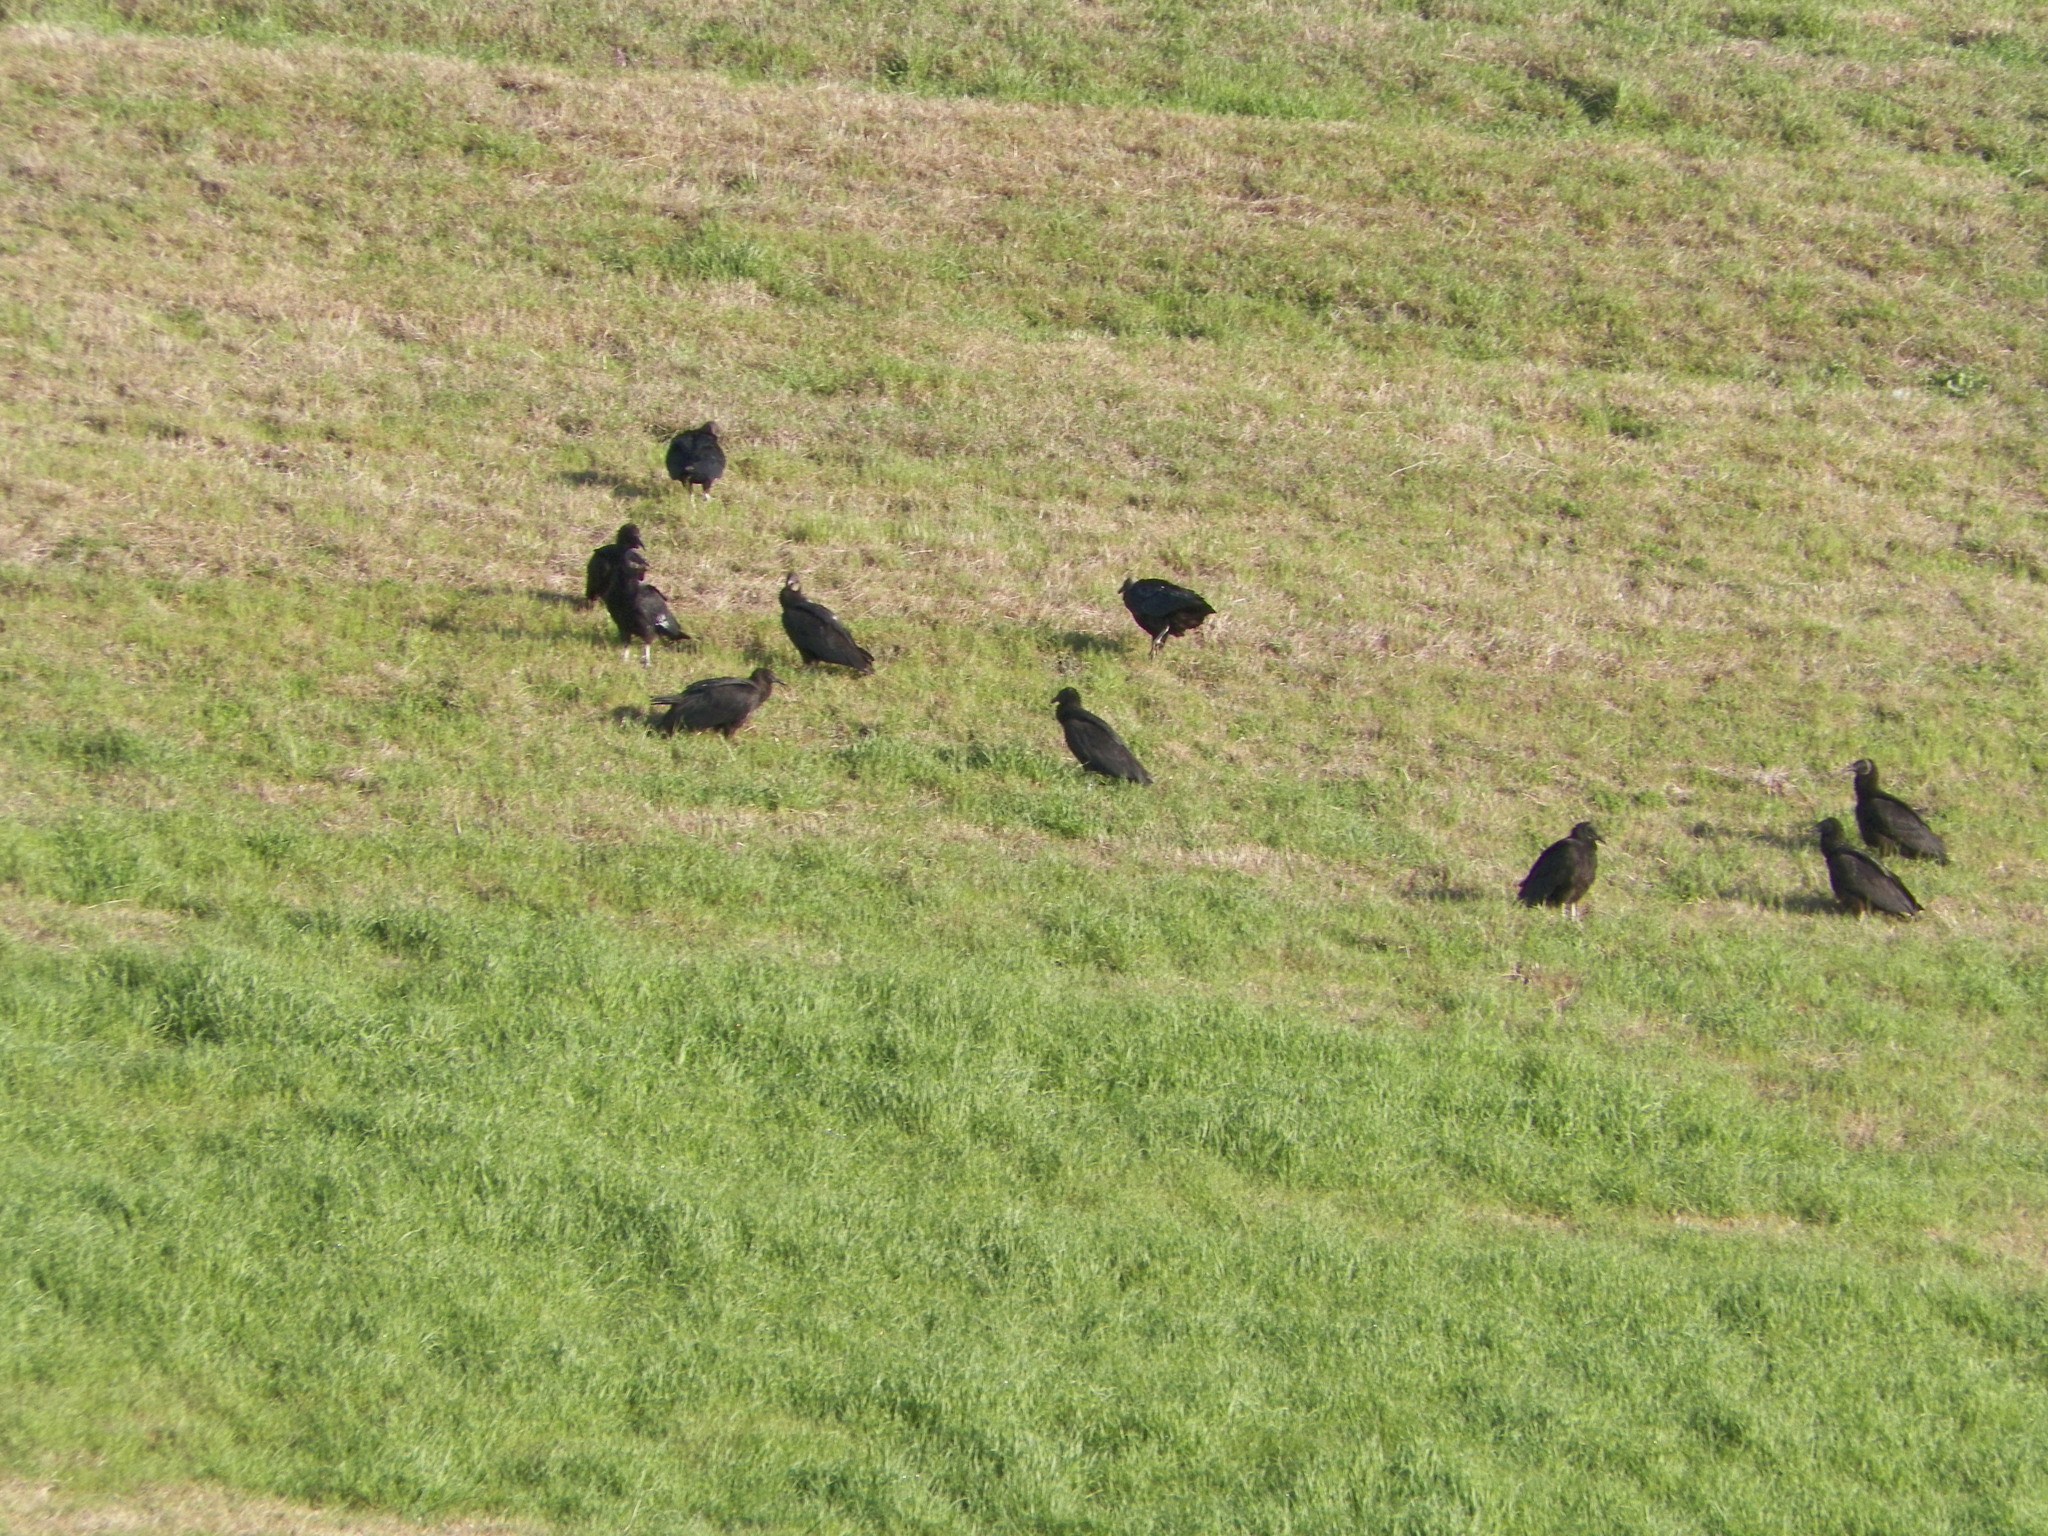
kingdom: Animalia
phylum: Chordata
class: Aves
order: Accipitriformes
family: Cathartidae
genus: Coragyps
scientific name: Coragyps atratus
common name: Black vulture
